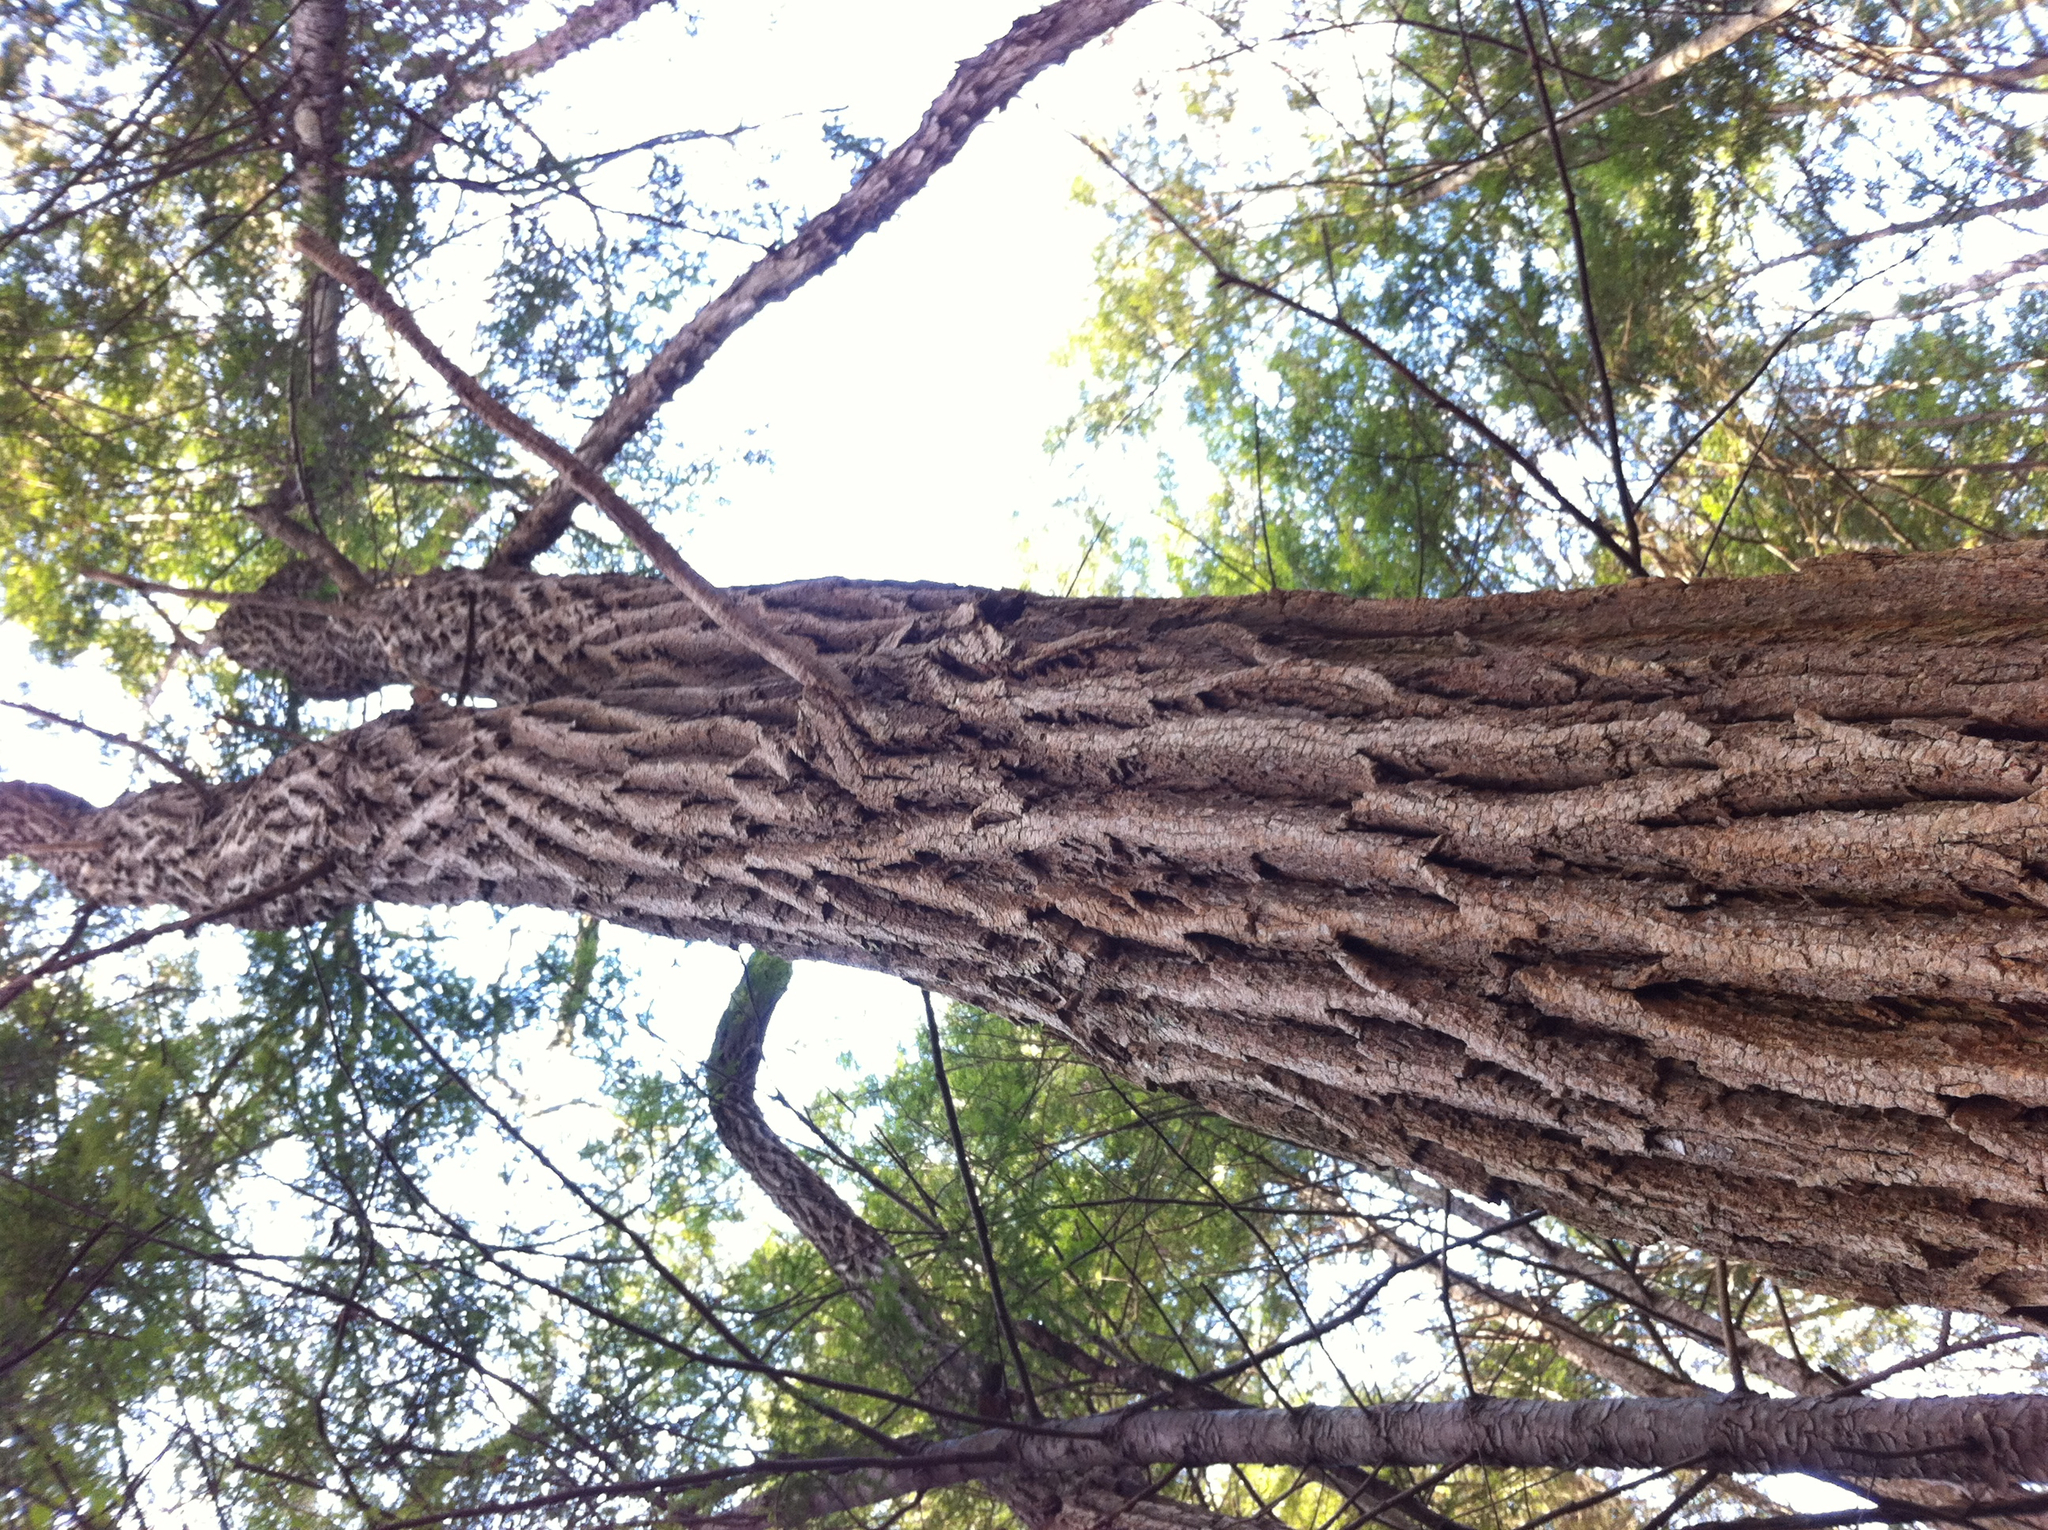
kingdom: Plantae
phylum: Tracheophyta
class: Magnoliopsida
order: Fabales
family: Fabaceae
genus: Robinia
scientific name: Robinia pseudoacacia
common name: Black locust
